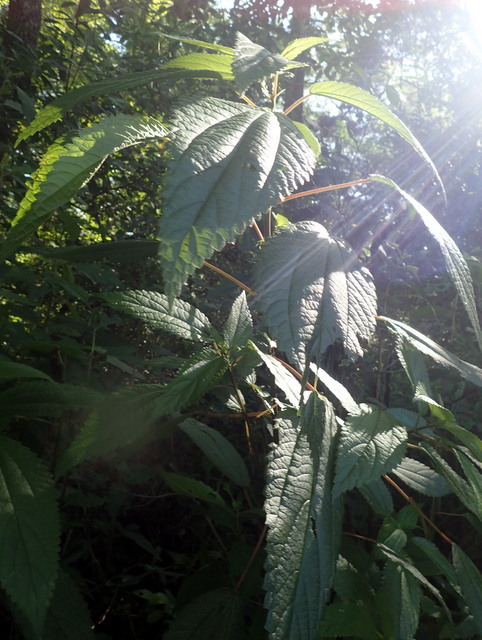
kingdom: Plantae
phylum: Tracheophyta
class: Magnoliopsida
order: Rosales
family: Urticaceae
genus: Boehmeria
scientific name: Boehmeria cylindrica
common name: Bog-hemp
